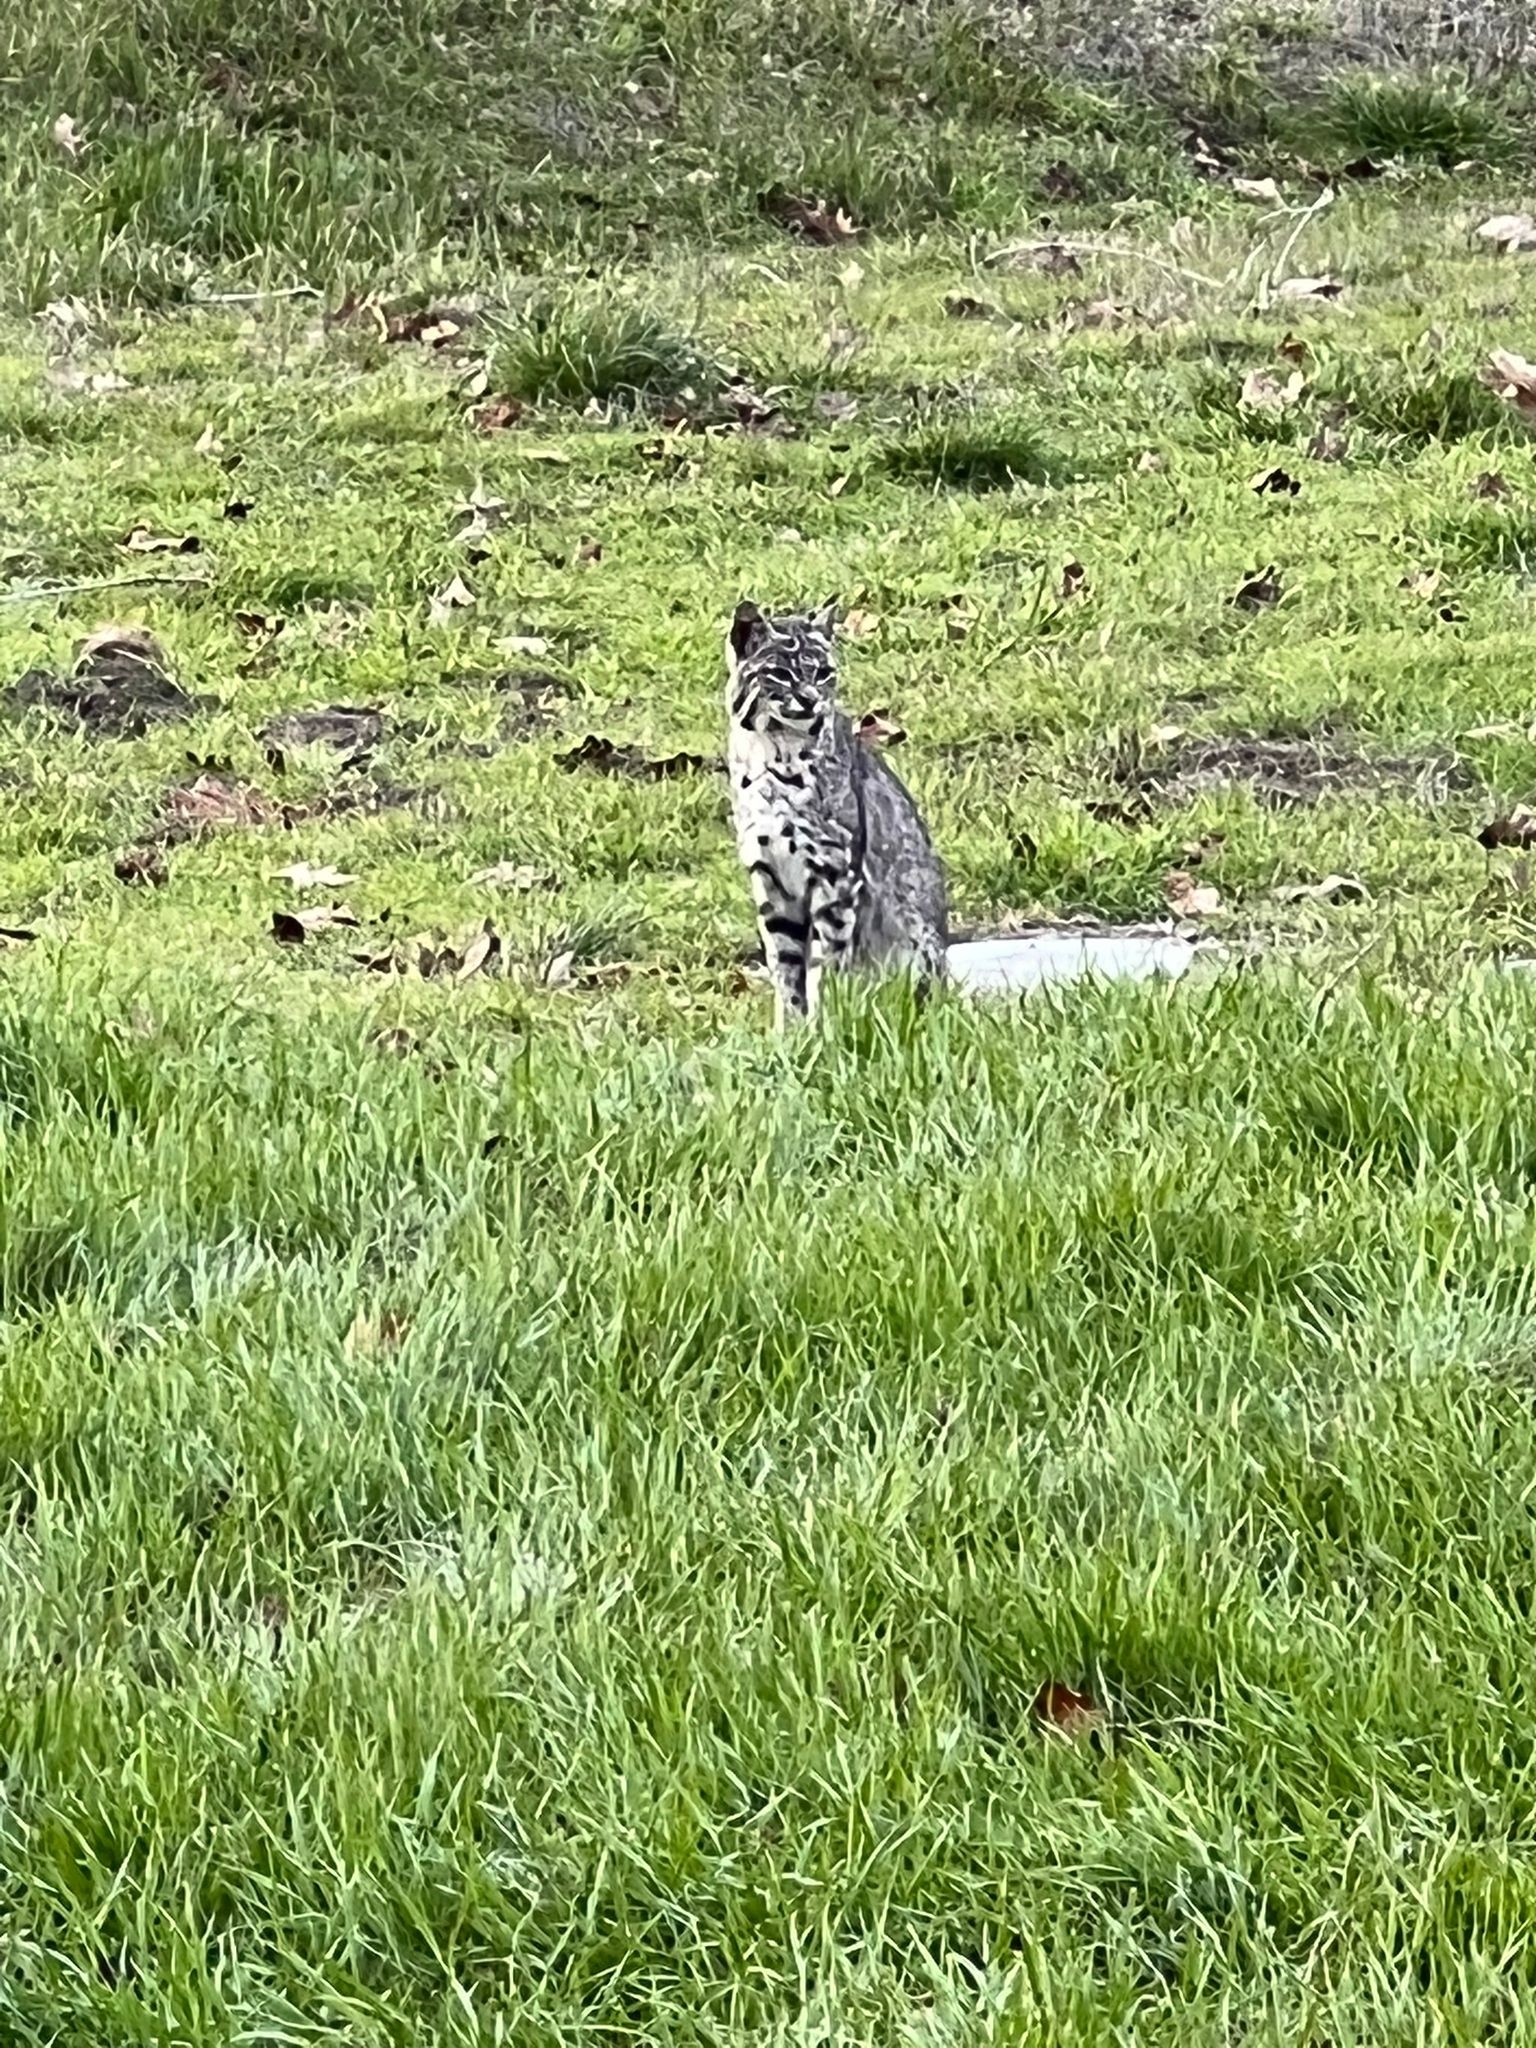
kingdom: Animalia
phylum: Chordata
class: Mammalia
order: Carnivora
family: Felidae
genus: Lynx
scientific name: Lynx rufus
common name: Bobcat
